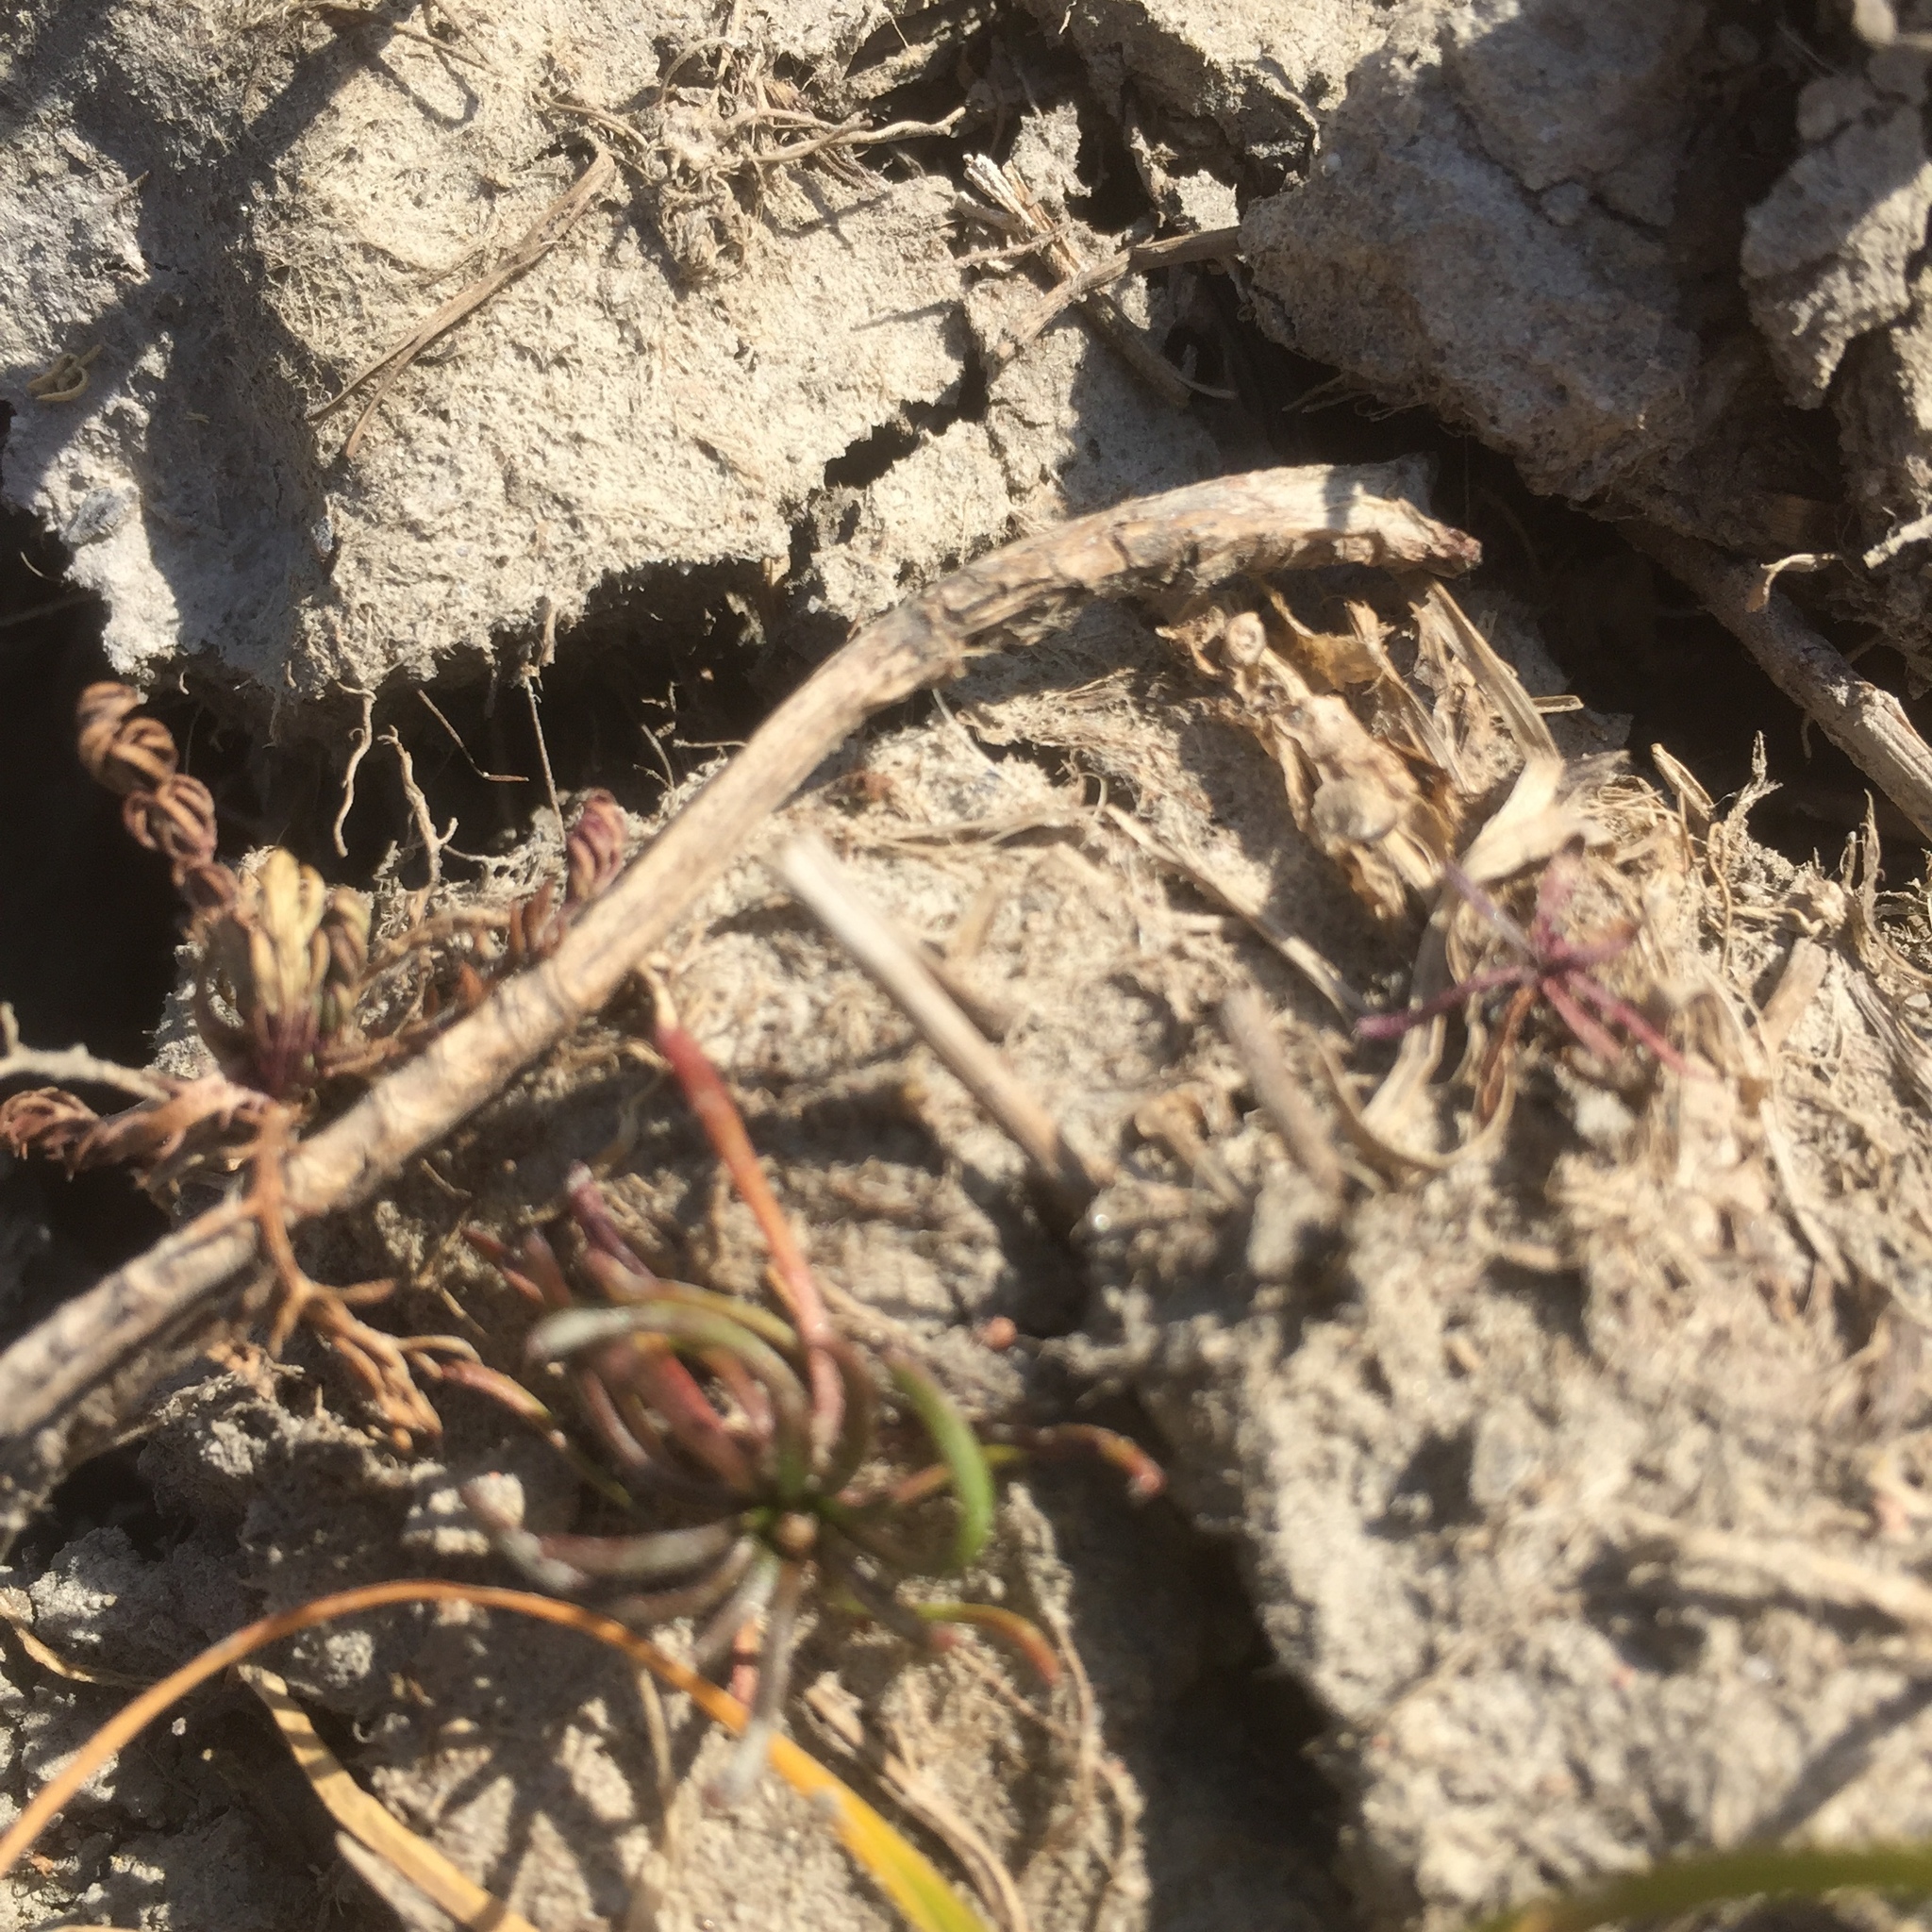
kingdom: Plantae
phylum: Tracheophyta
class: Magnoliopsida
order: Ranunculales
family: Ranunculaceae
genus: Myosurus
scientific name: Myosurus minimus
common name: Mousetail
